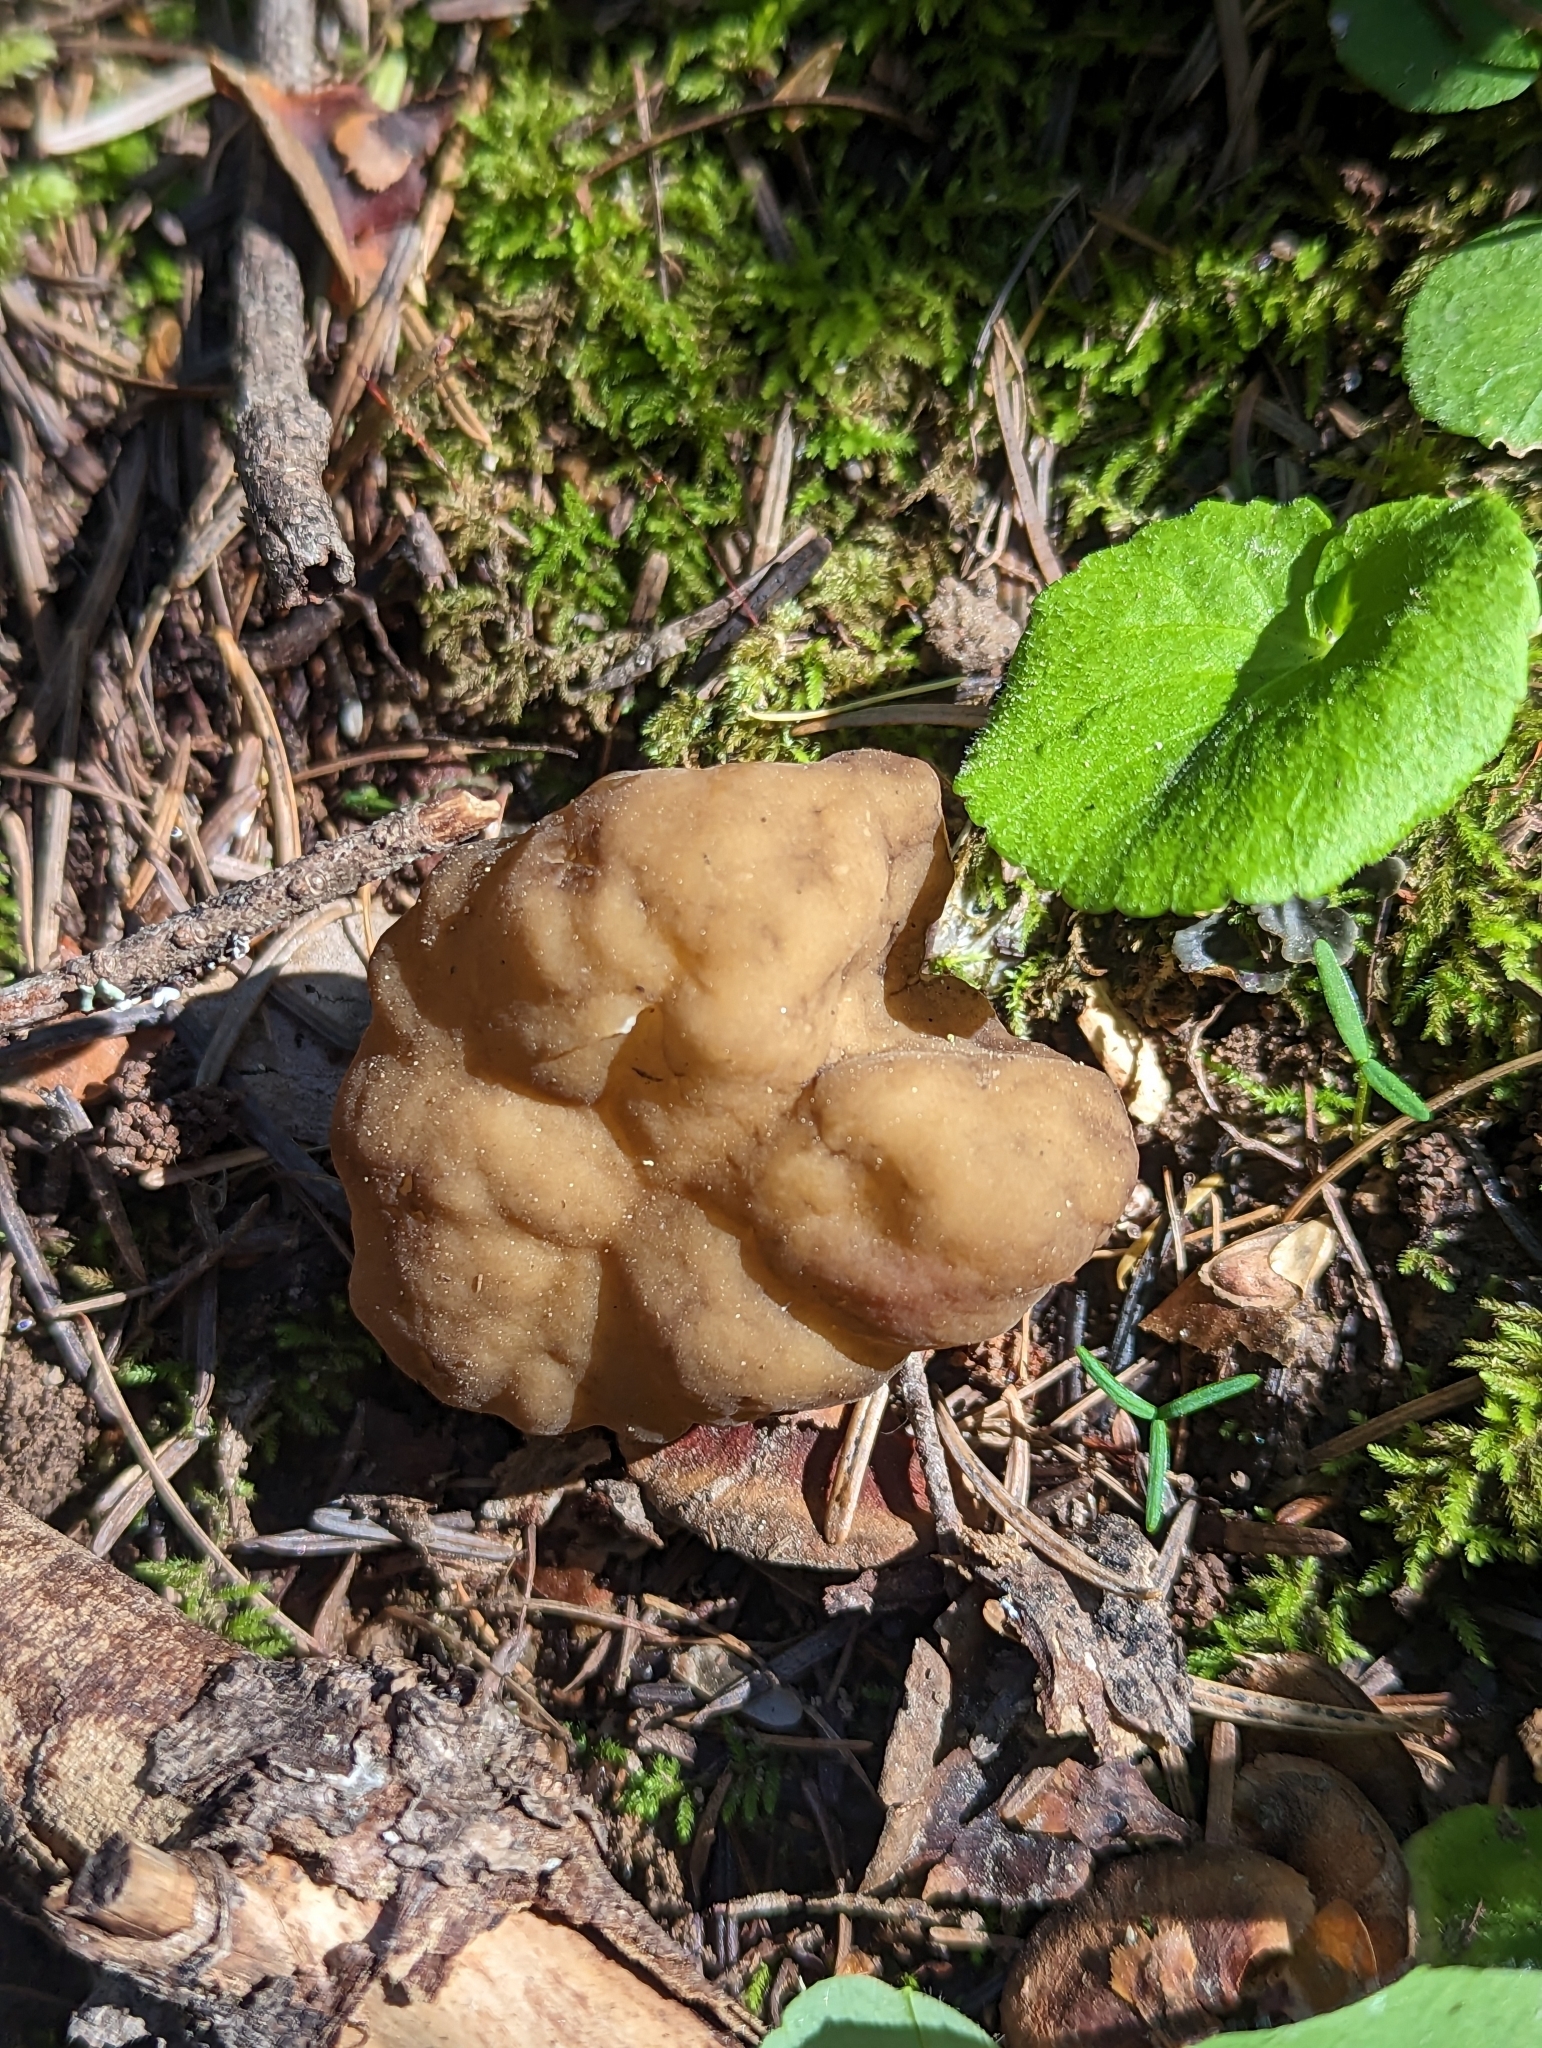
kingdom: Fungi
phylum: Ascomycota
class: Pezizomycetes
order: Pezizales
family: Discinaceae
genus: Gyromitra
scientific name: Gyromitra californica
